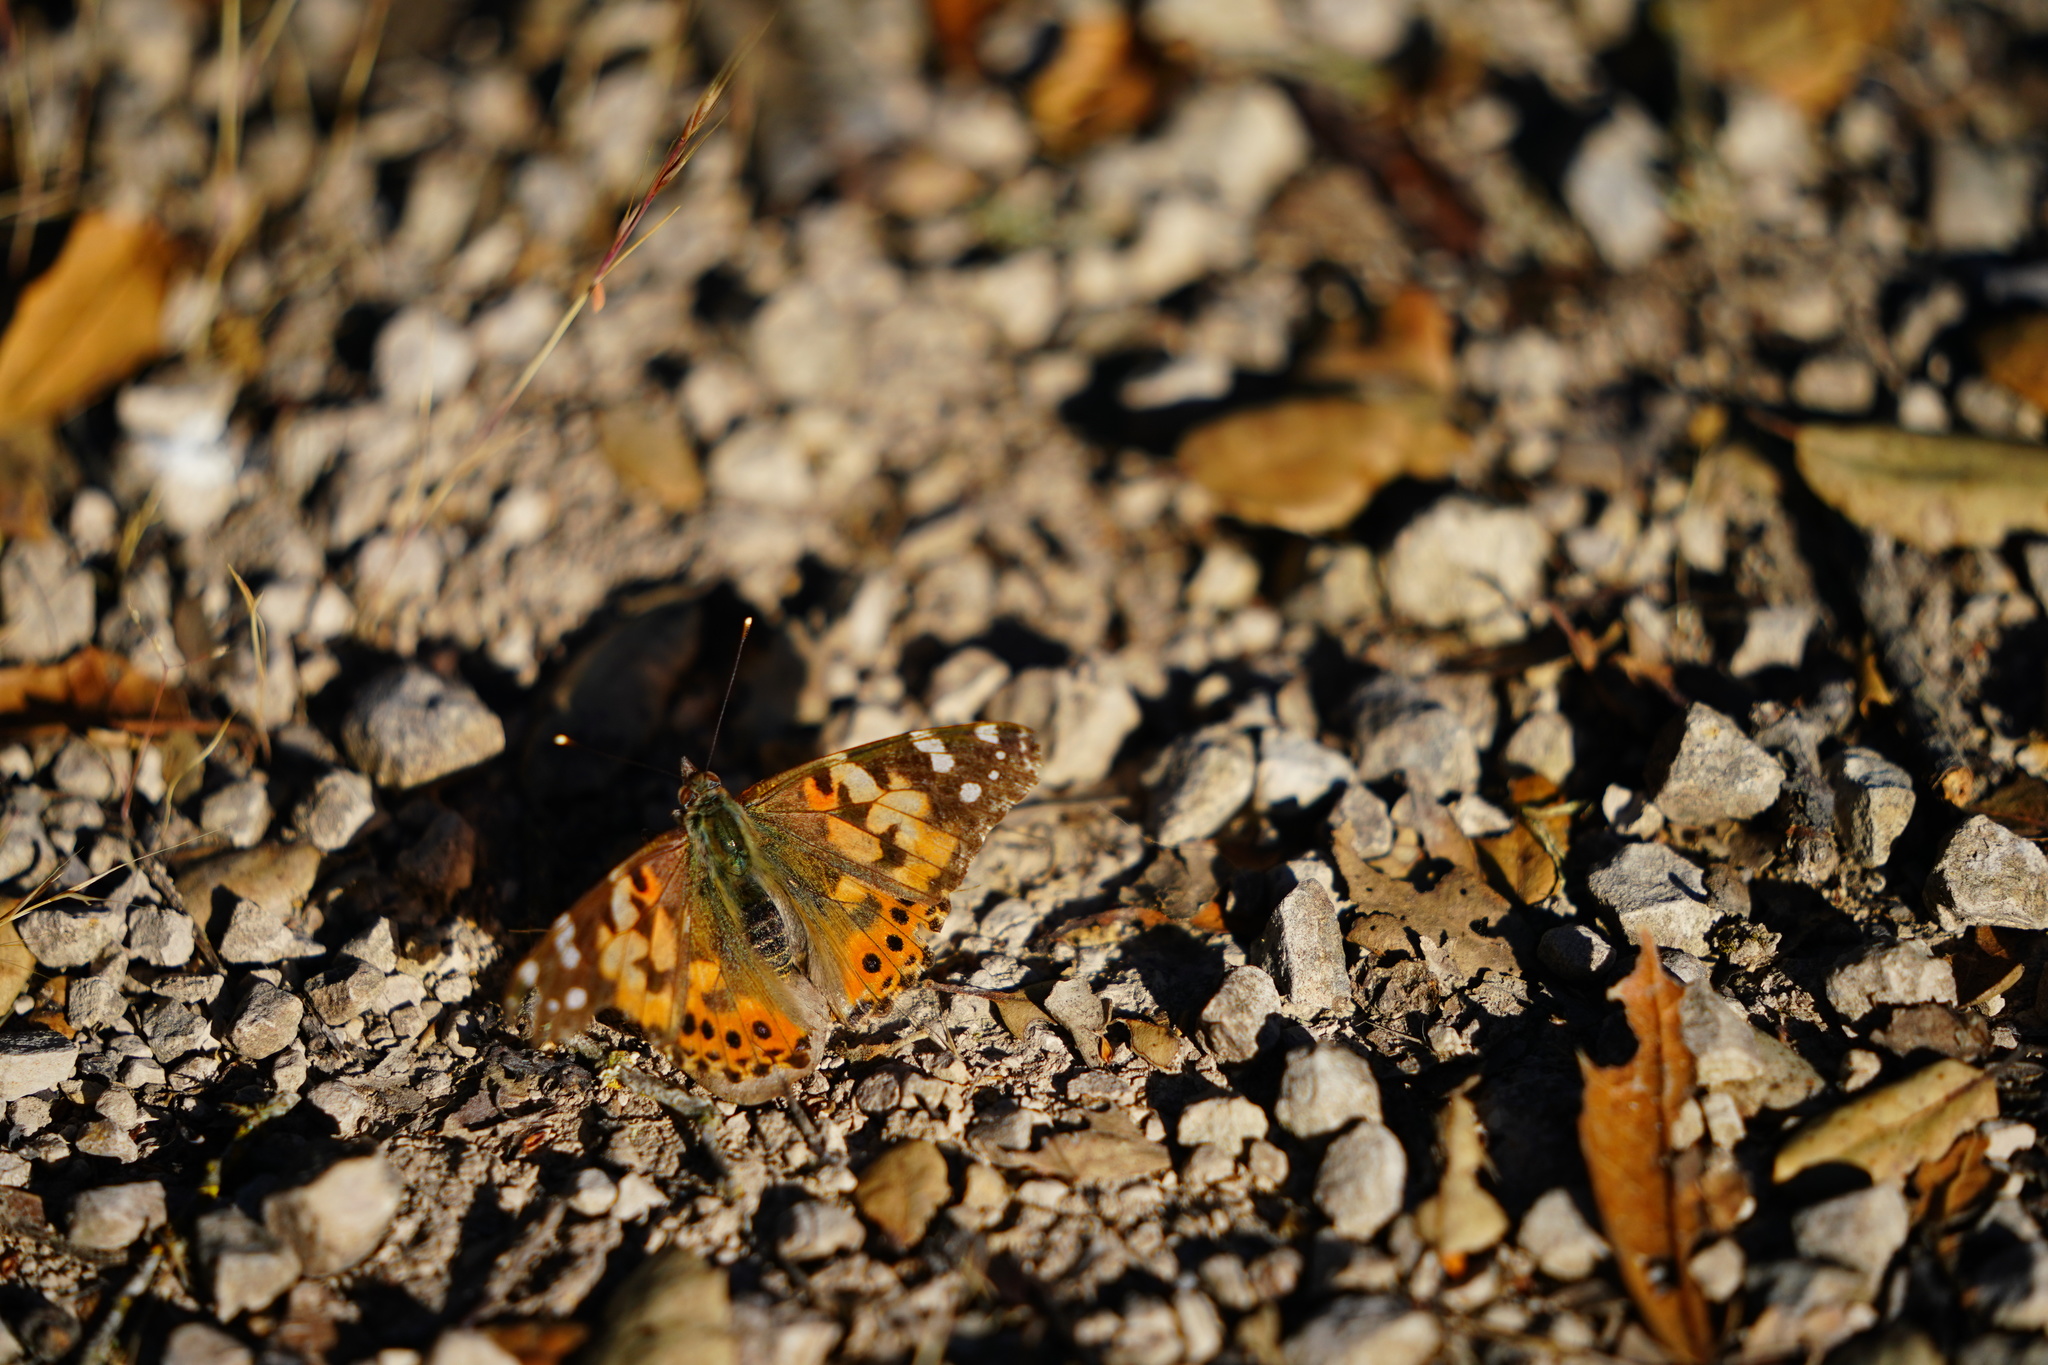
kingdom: Animalia
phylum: Arthropoda
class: Insecta
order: Lepidoptera
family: Nymphalidae
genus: Vanessa
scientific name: Vanessa cardui
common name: Painted lady
